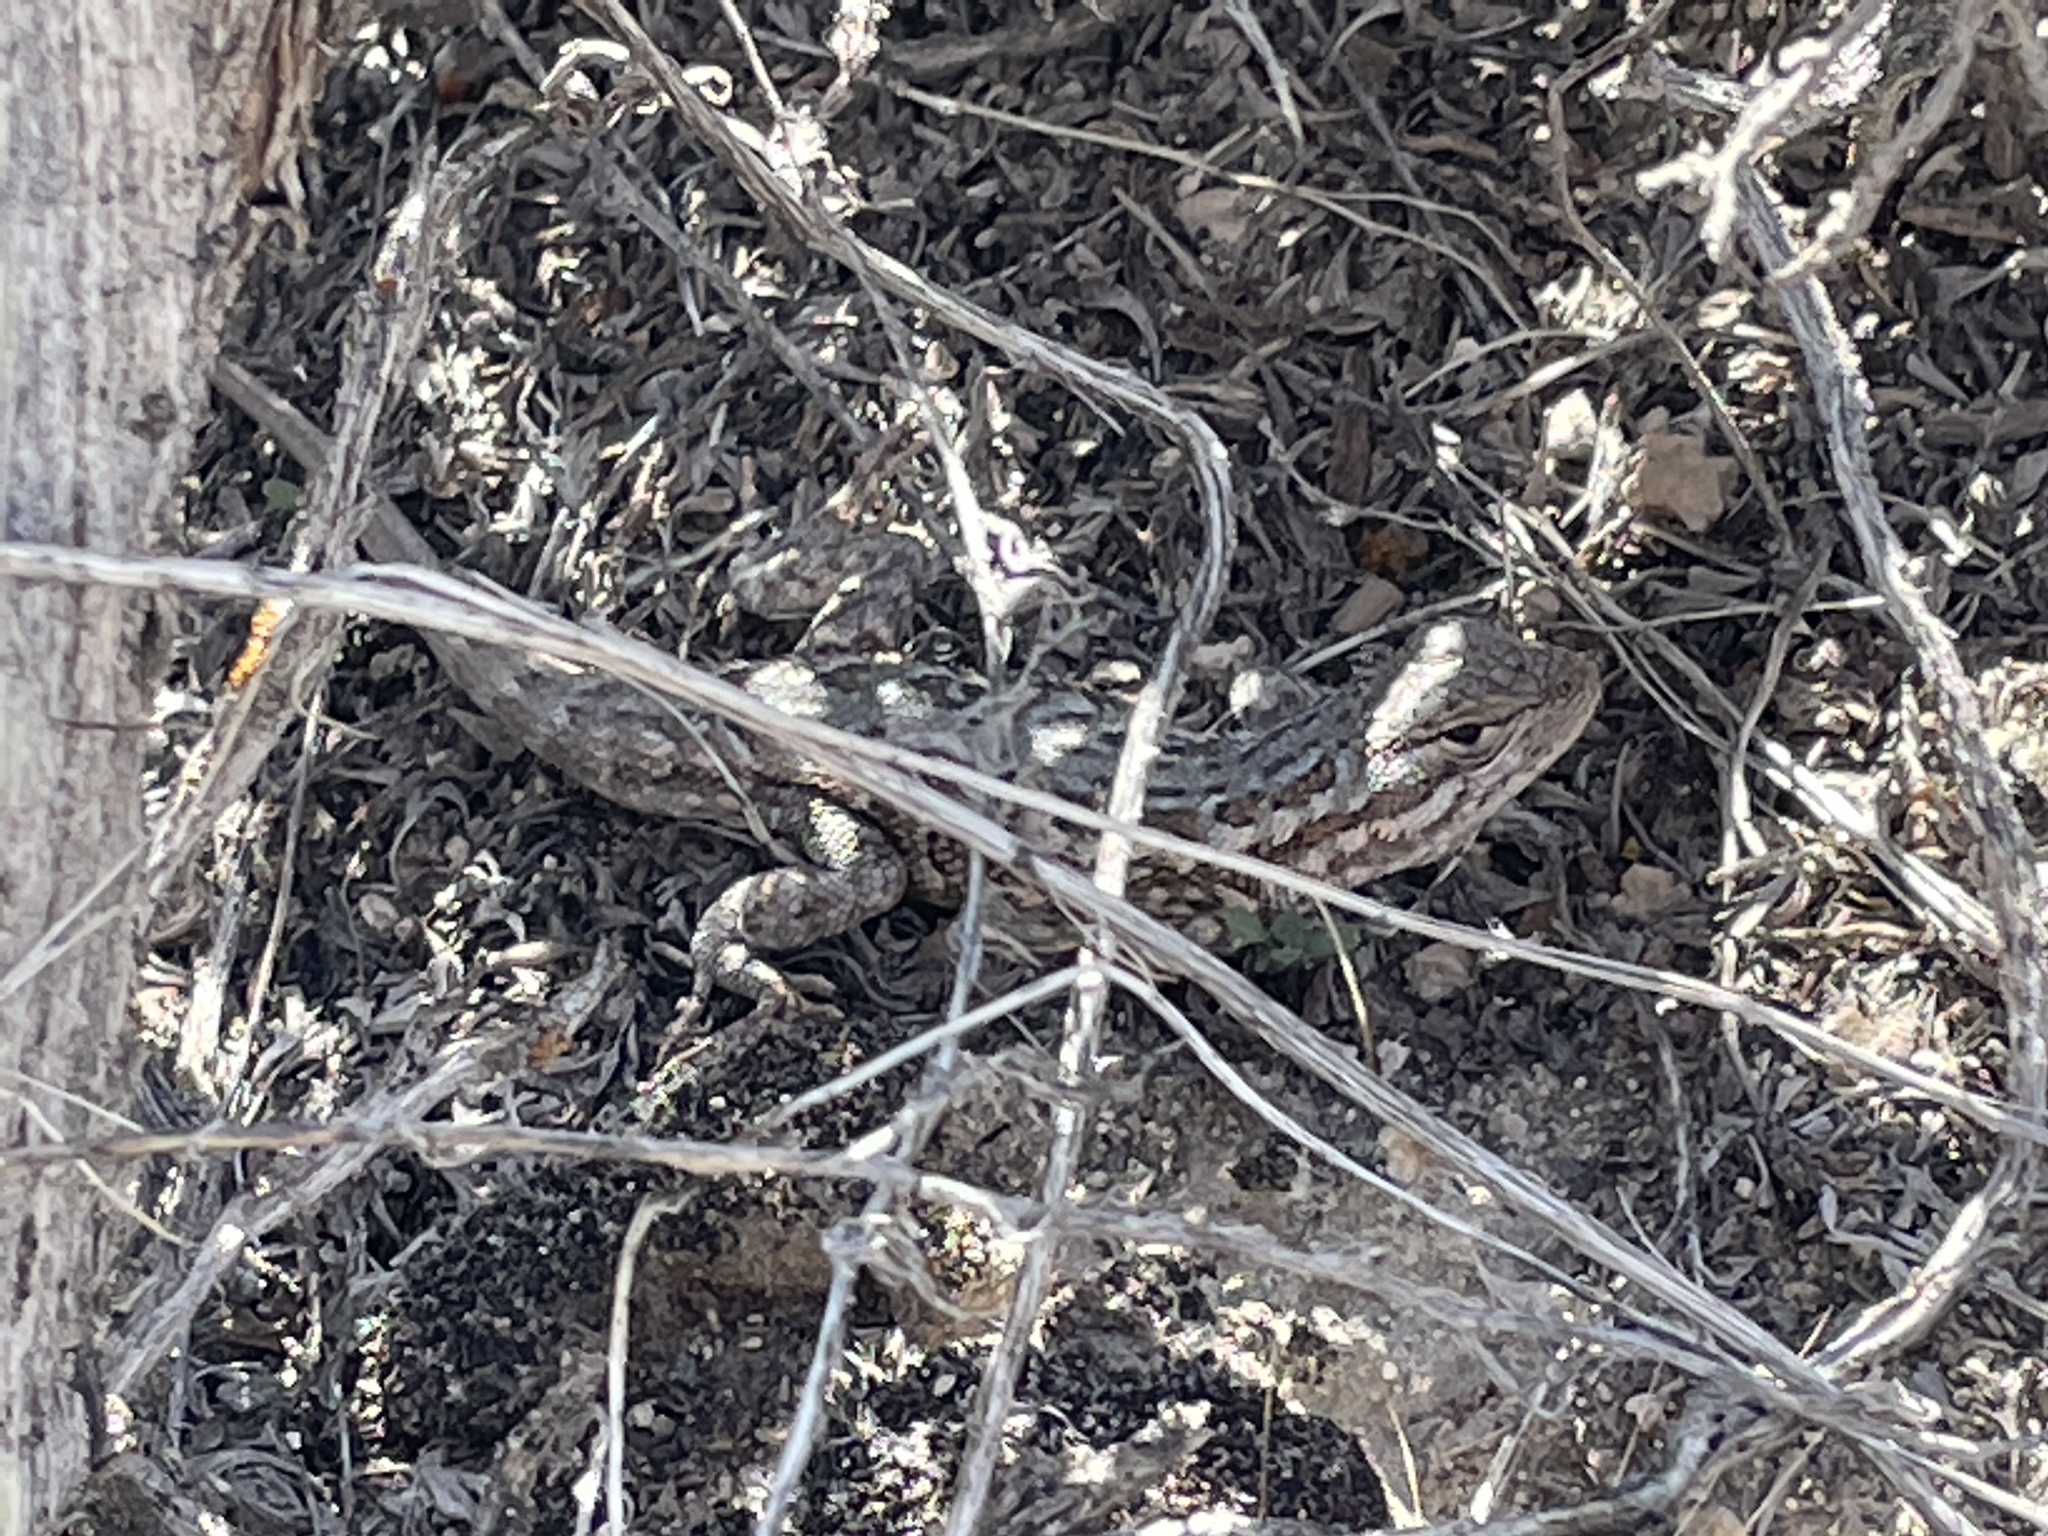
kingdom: Animalia
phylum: Chordata
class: Squamata
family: Phrynosomatidae
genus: Sceloporus
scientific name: Sceloporus graciosus
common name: Sagebrush lizard
